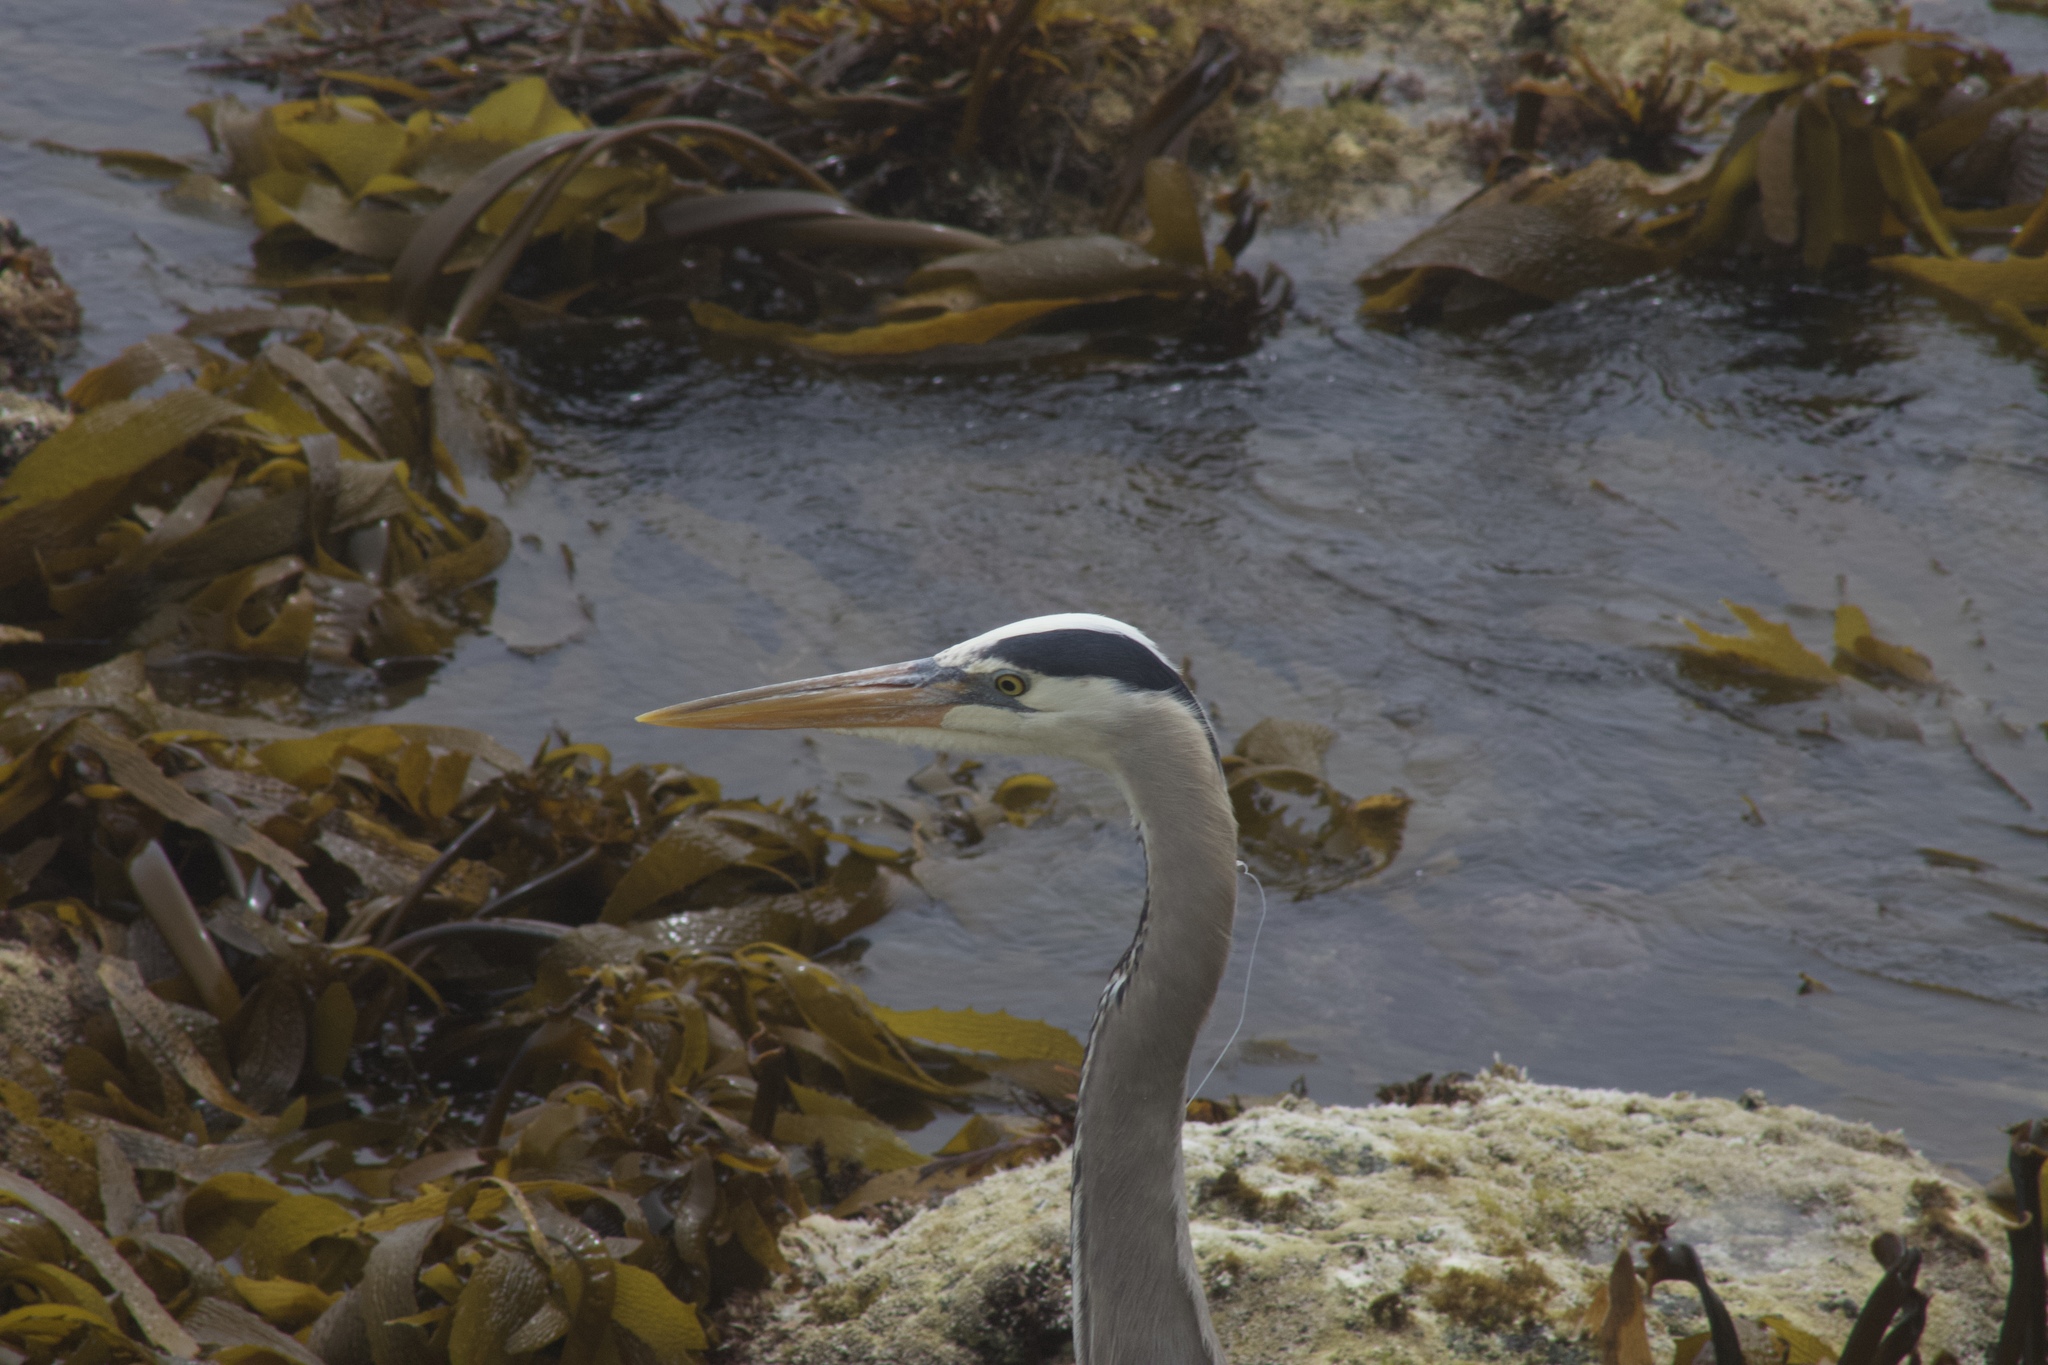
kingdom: Animalia
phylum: Chordata
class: Aves
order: Pelecaniformes
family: Ardeidae
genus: Ardea
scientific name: Ardea herodias
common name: Great blue heron
